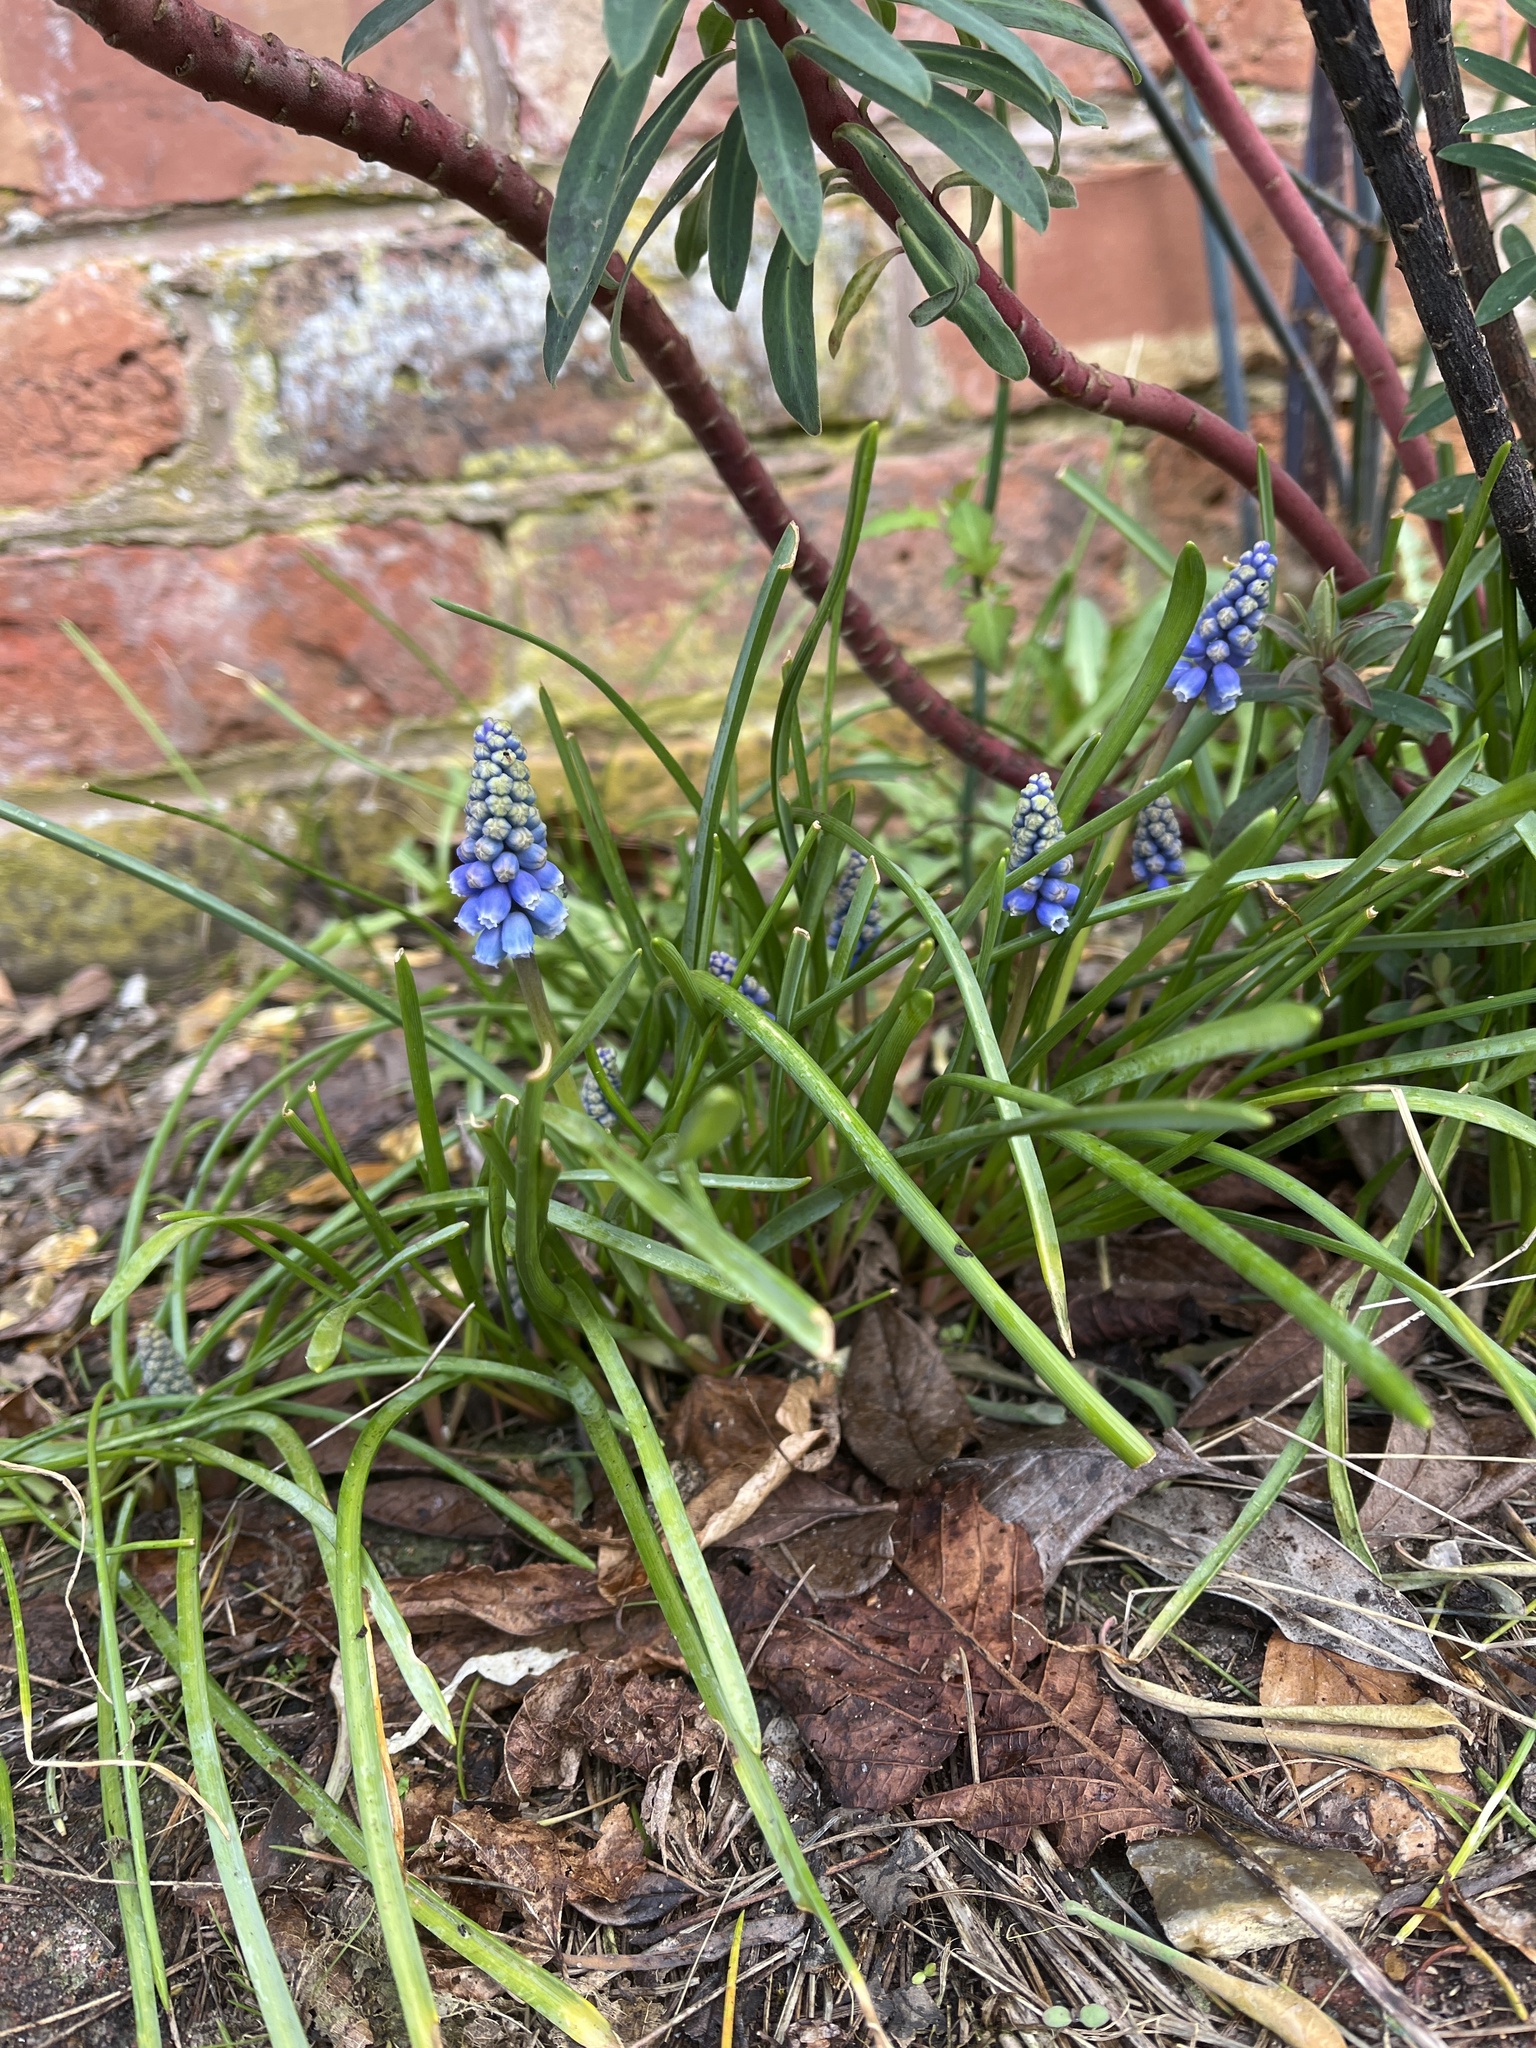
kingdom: Plantae
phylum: Tracheophyta
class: Liliopsida
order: Asparagales
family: Asparagaceae
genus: Muscari
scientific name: Muscari armeniacum
